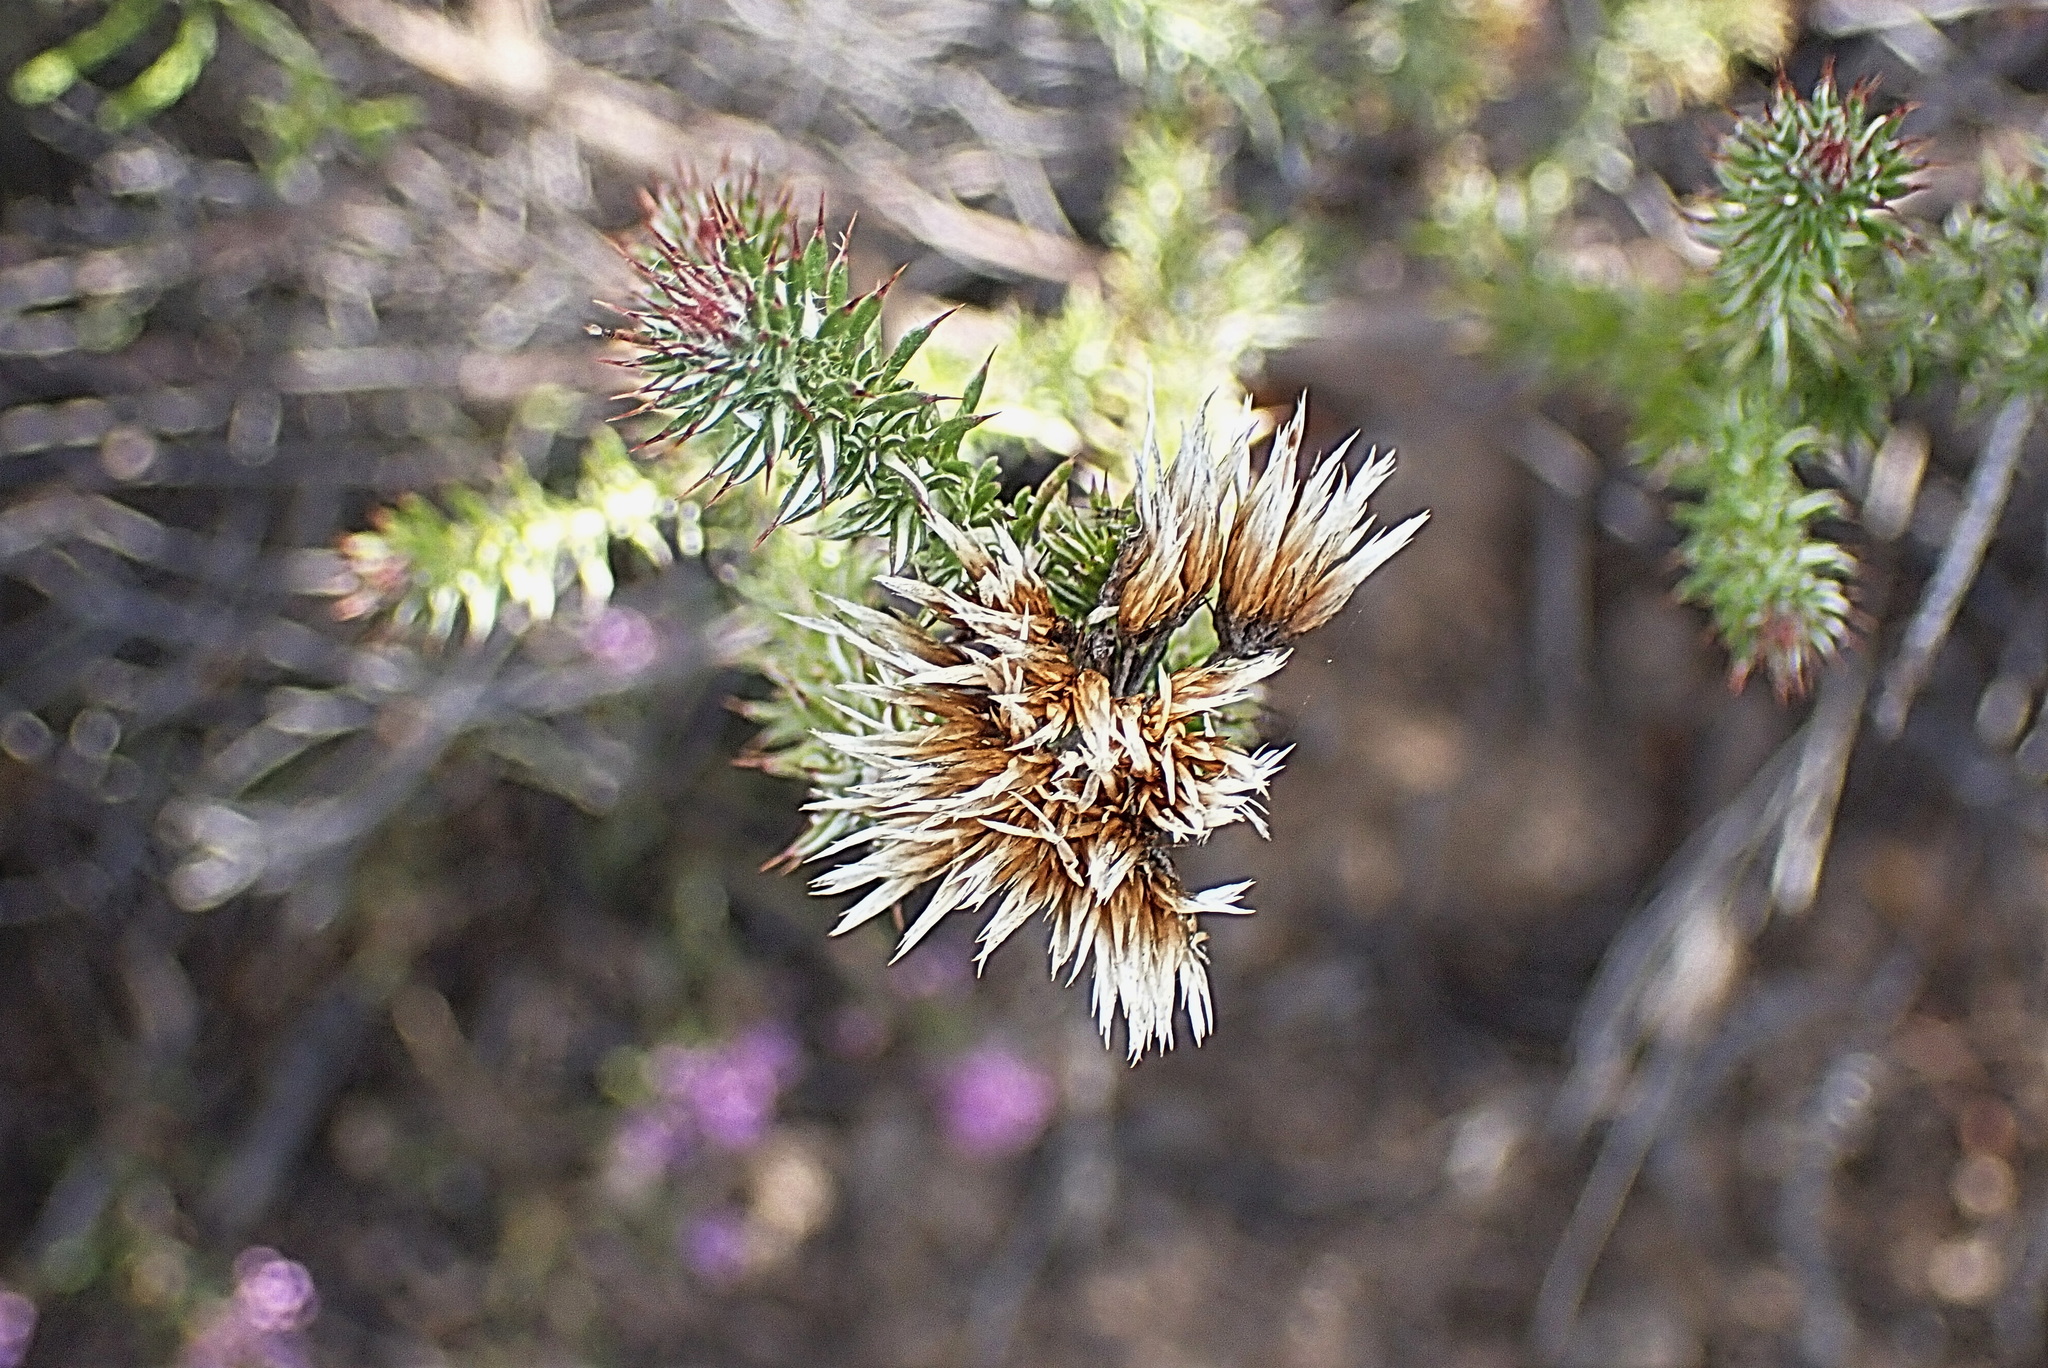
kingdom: Plantae
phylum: Tracheophyta
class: Magnoliopsida
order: Asterales
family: Asteraceae
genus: Metalasia
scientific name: Metalasia massonii
